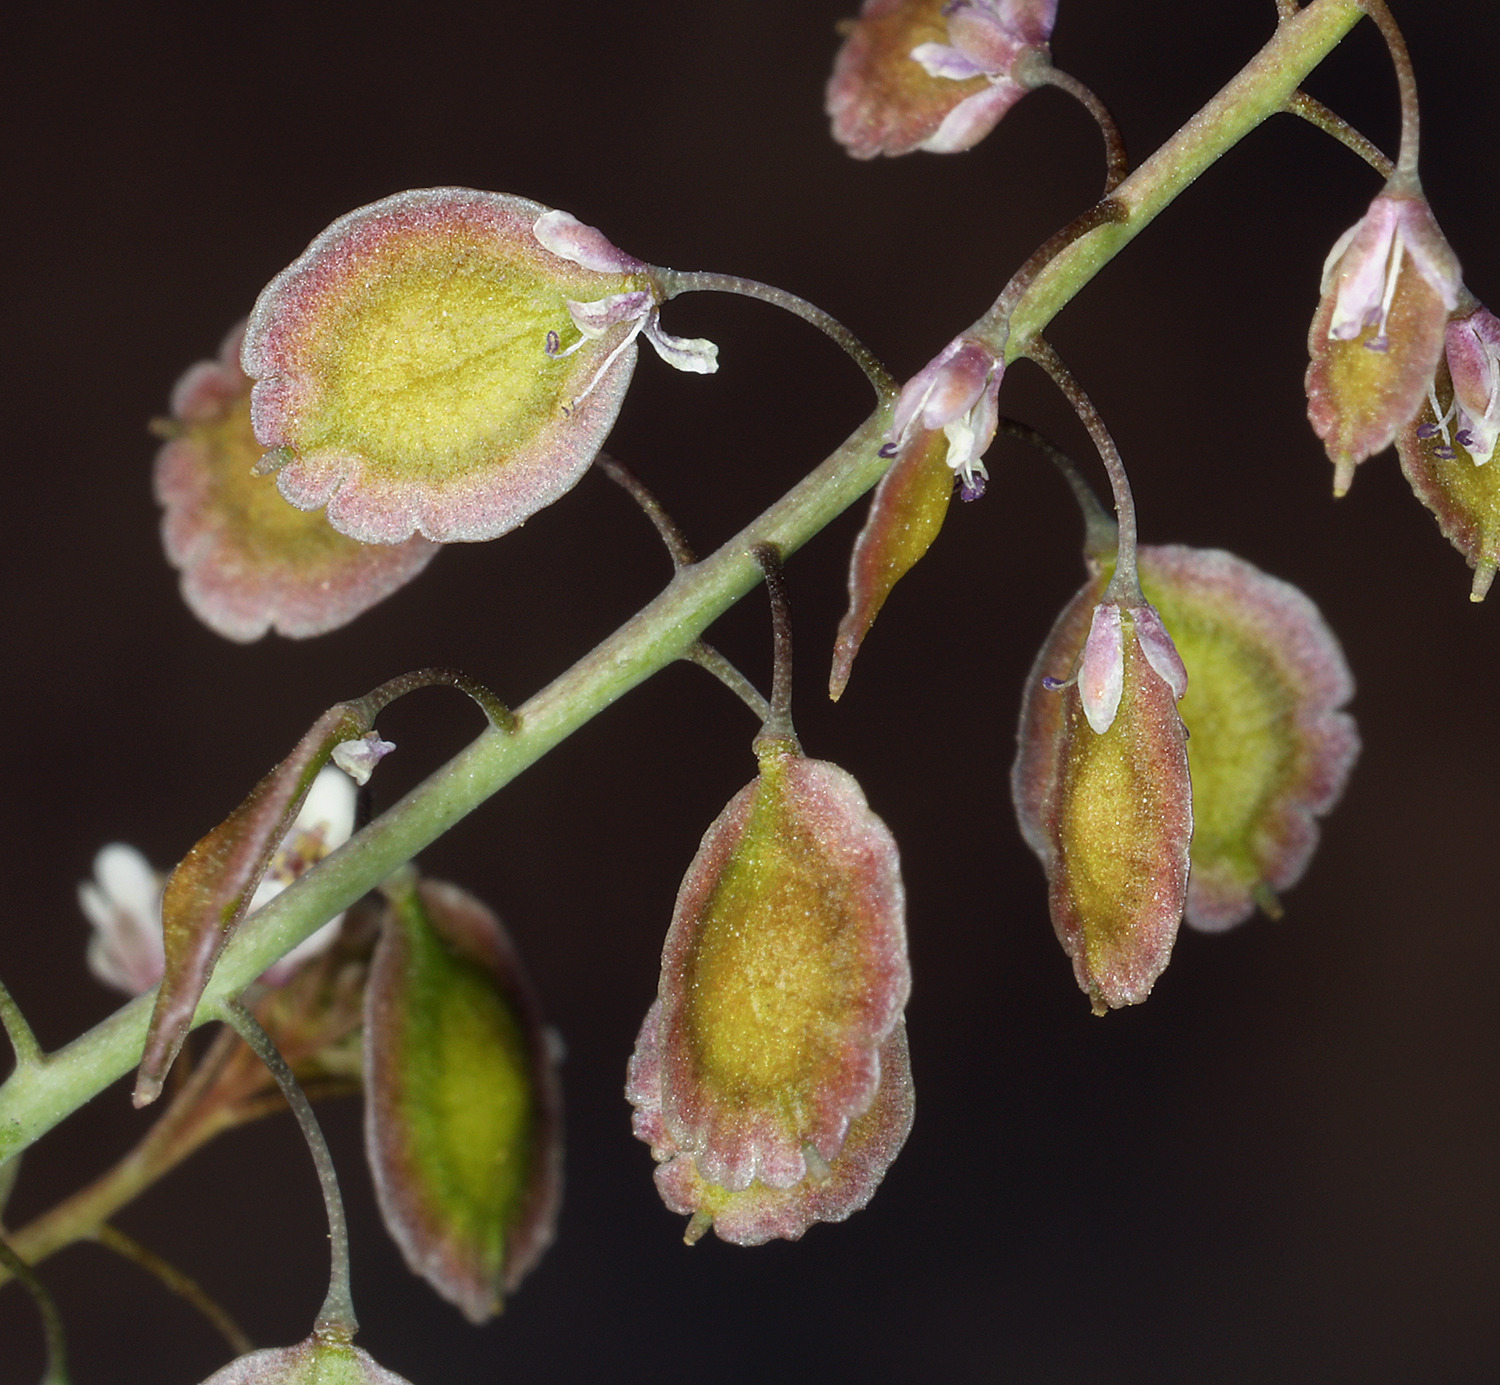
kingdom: Plantae
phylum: Tracheophyta
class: Magnoliopsida
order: Brassicales
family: Brassicaceae
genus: Thysanocarpus
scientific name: Thysanocarpus curvipes
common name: Sand fringepod
